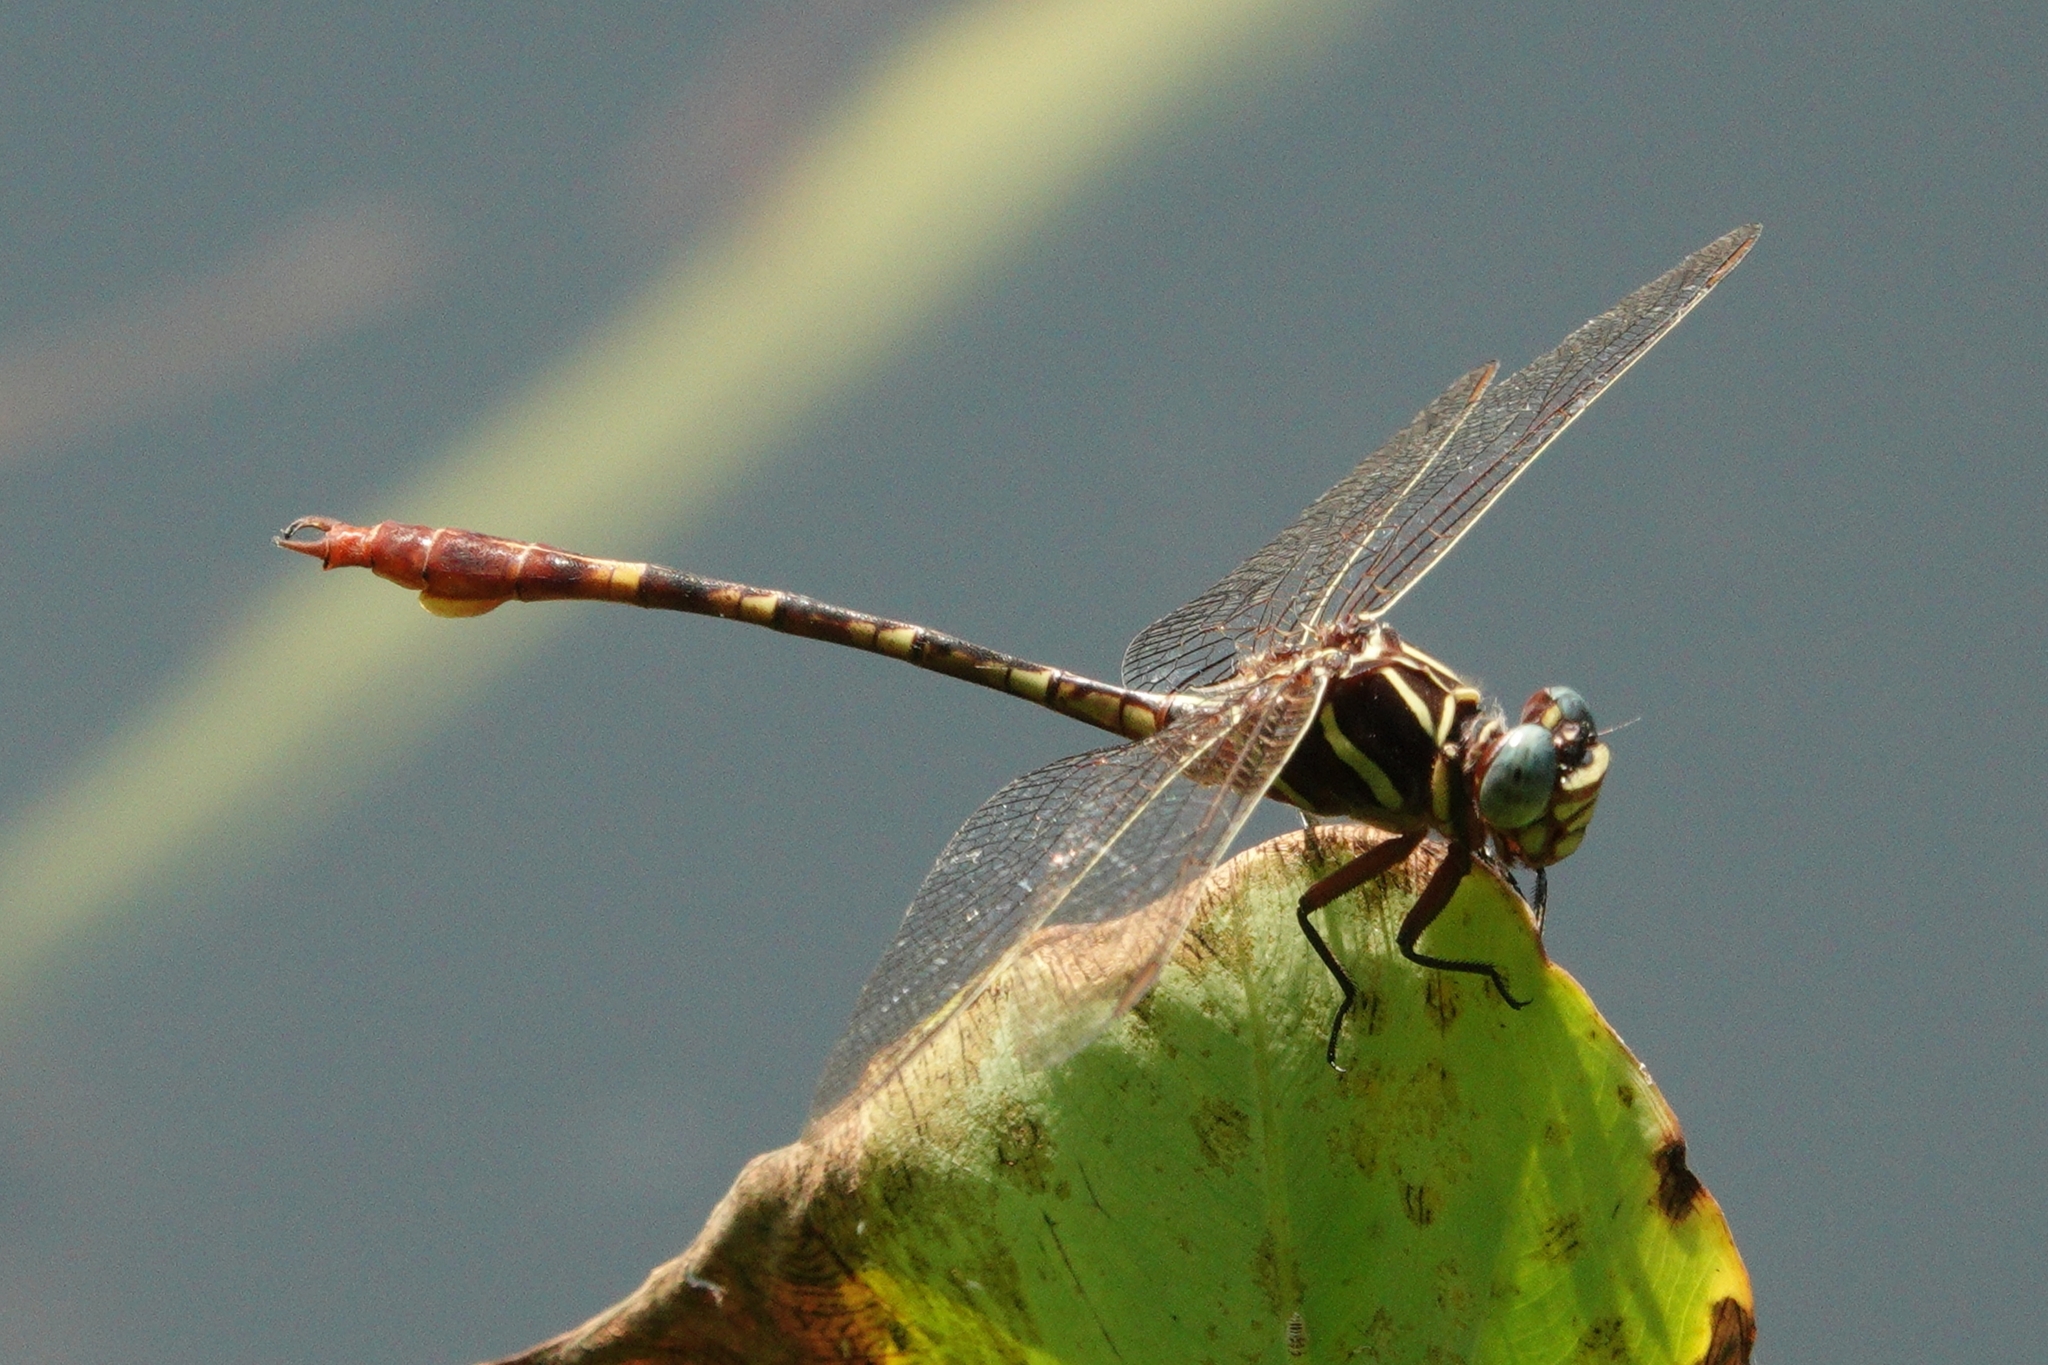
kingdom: Animalia
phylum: Arthropoda
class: Insecta
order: Odonata
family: Gomphidae
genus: Aphylla
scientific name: Aphylla williamsoni
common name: Two-striped forceptail
